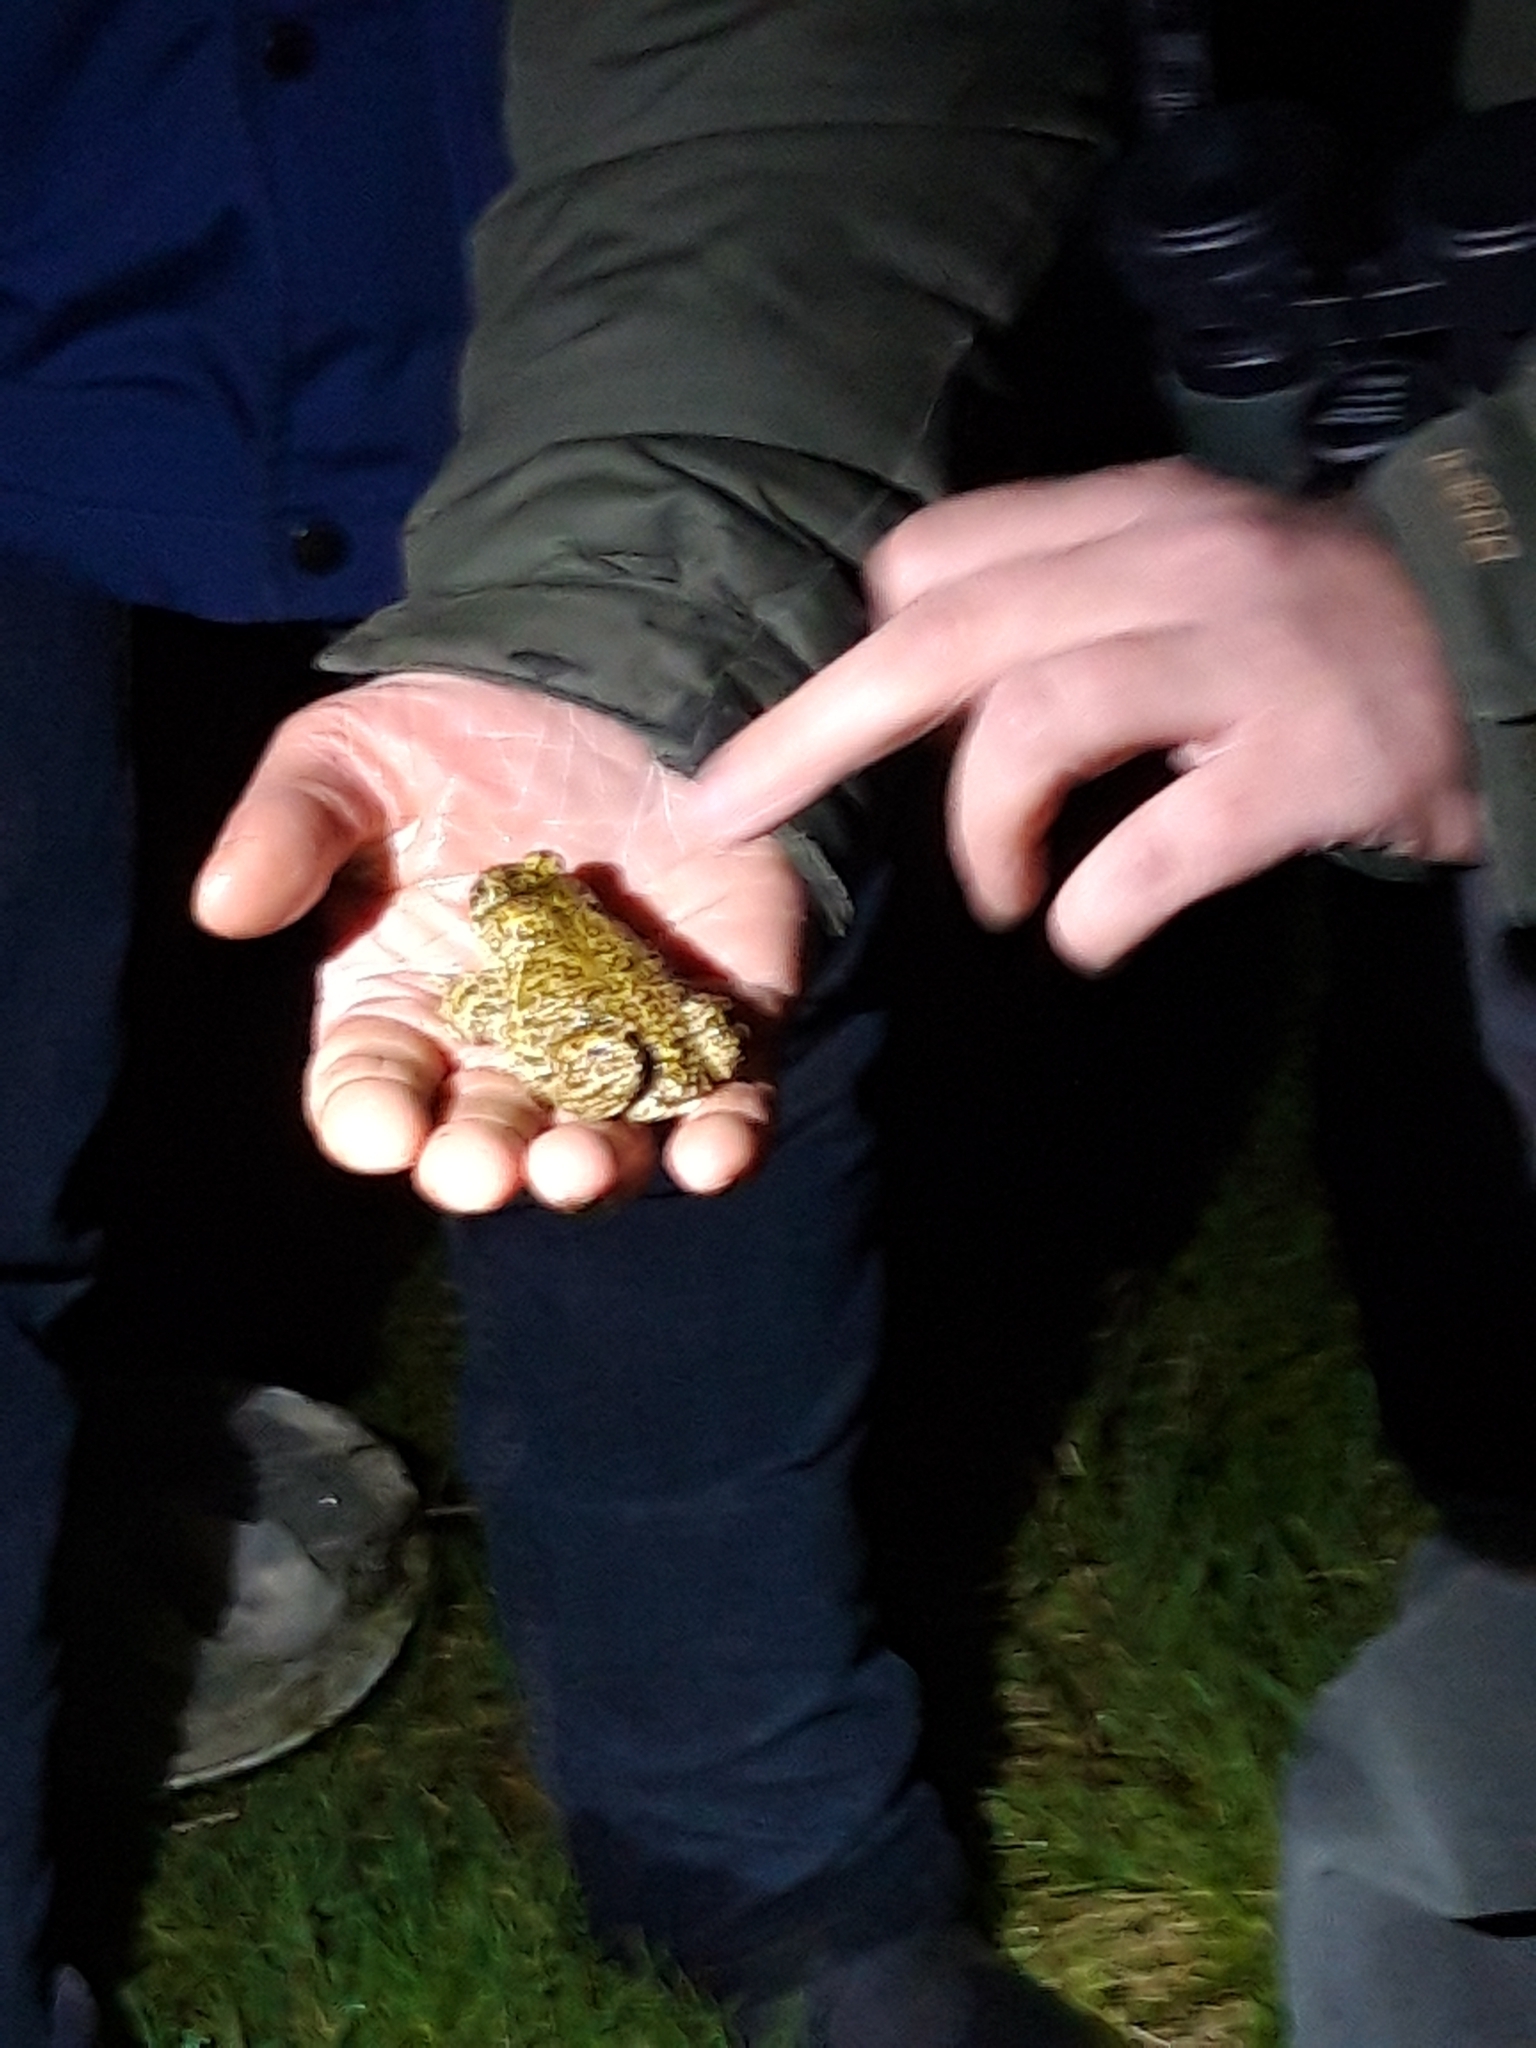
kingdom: Animalia
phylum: Chordata
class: Amphibia
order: Anura
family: Bufonidae
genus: Epidalea
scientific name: Epidalea calamita
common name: Natterjack toad
